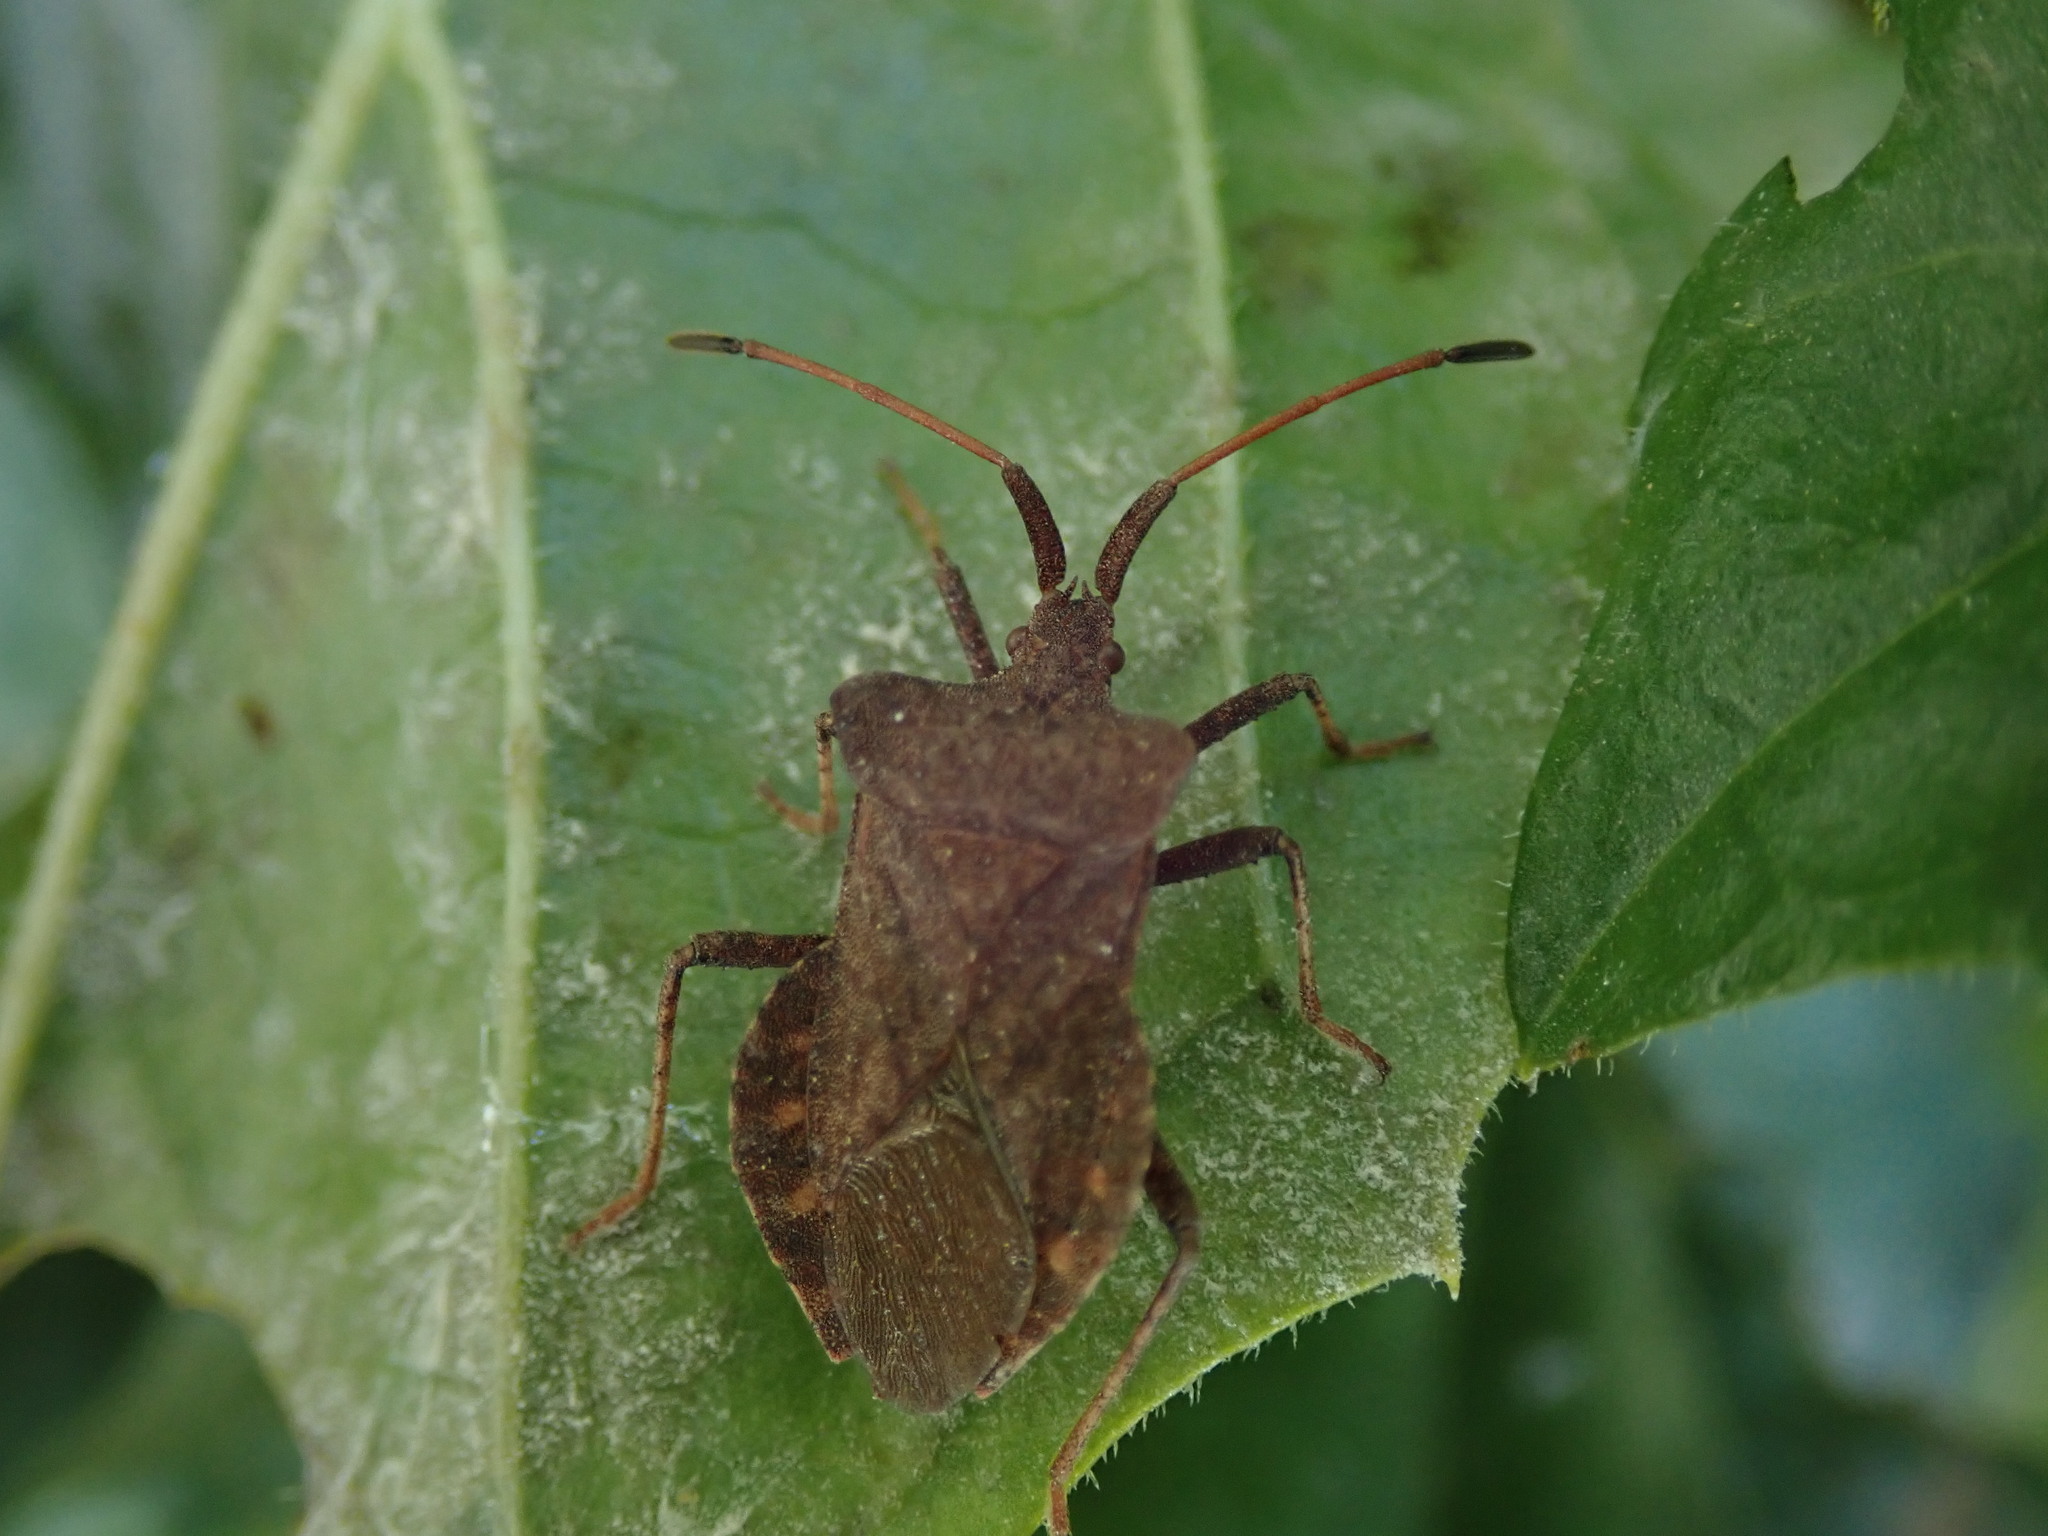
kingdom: Animalia
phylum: Arthropoda
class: Insecta
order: Hemiptera
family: Coreidae
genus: Coreus
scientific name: Coreus marginatus
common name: Dock bug
